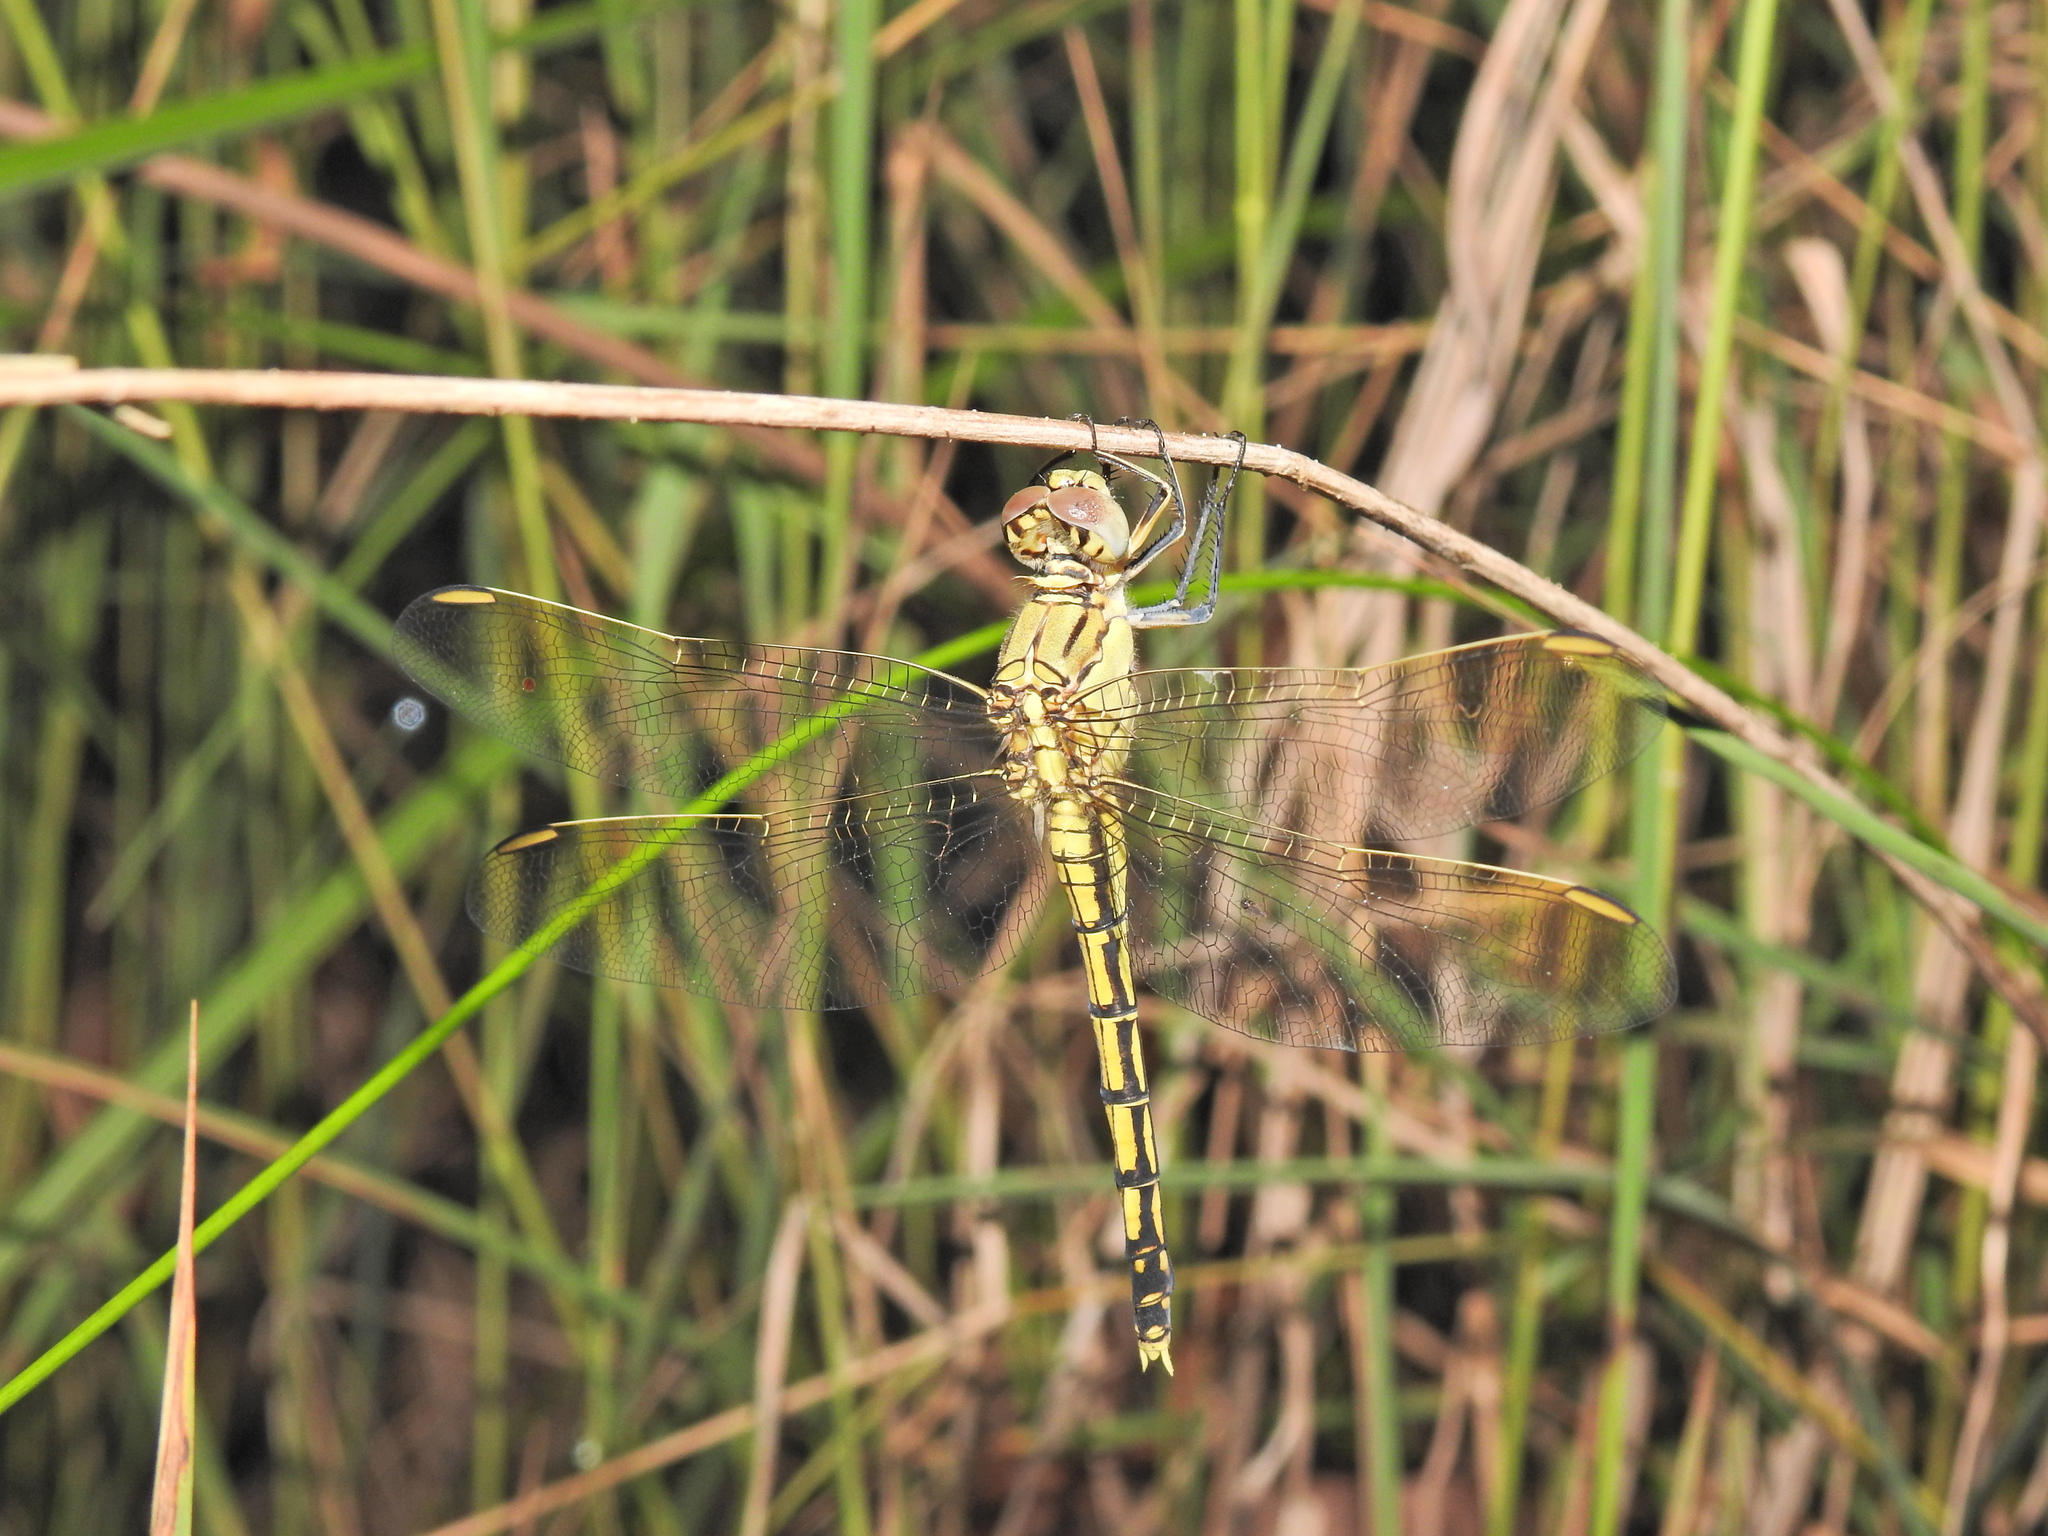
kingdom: Animalia
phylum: Arthropoda
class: Insecta
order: Odonata
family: Libellulidae
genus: Orthetrum
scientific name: Orthetrum caledonicum
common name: Blue skimmer
